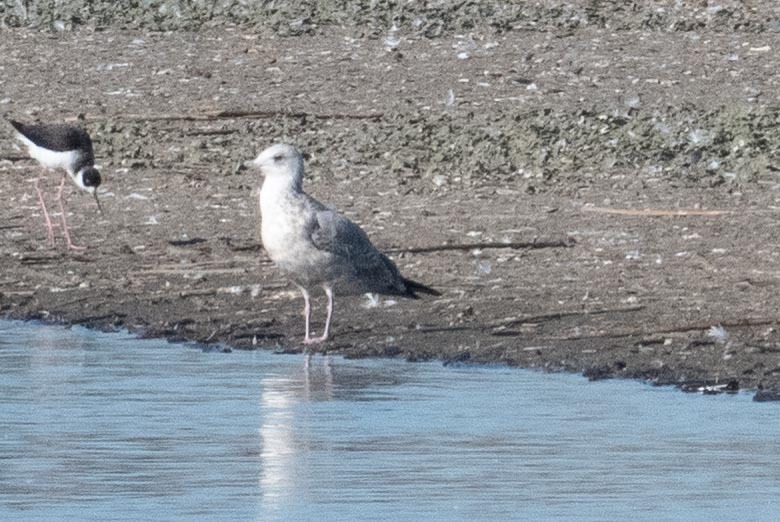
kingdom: Animalia
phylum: Chordata
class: Aves
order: Charadriiformes
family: Laridae
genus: Larus
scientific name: Larus argentatus
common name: Herring gull
